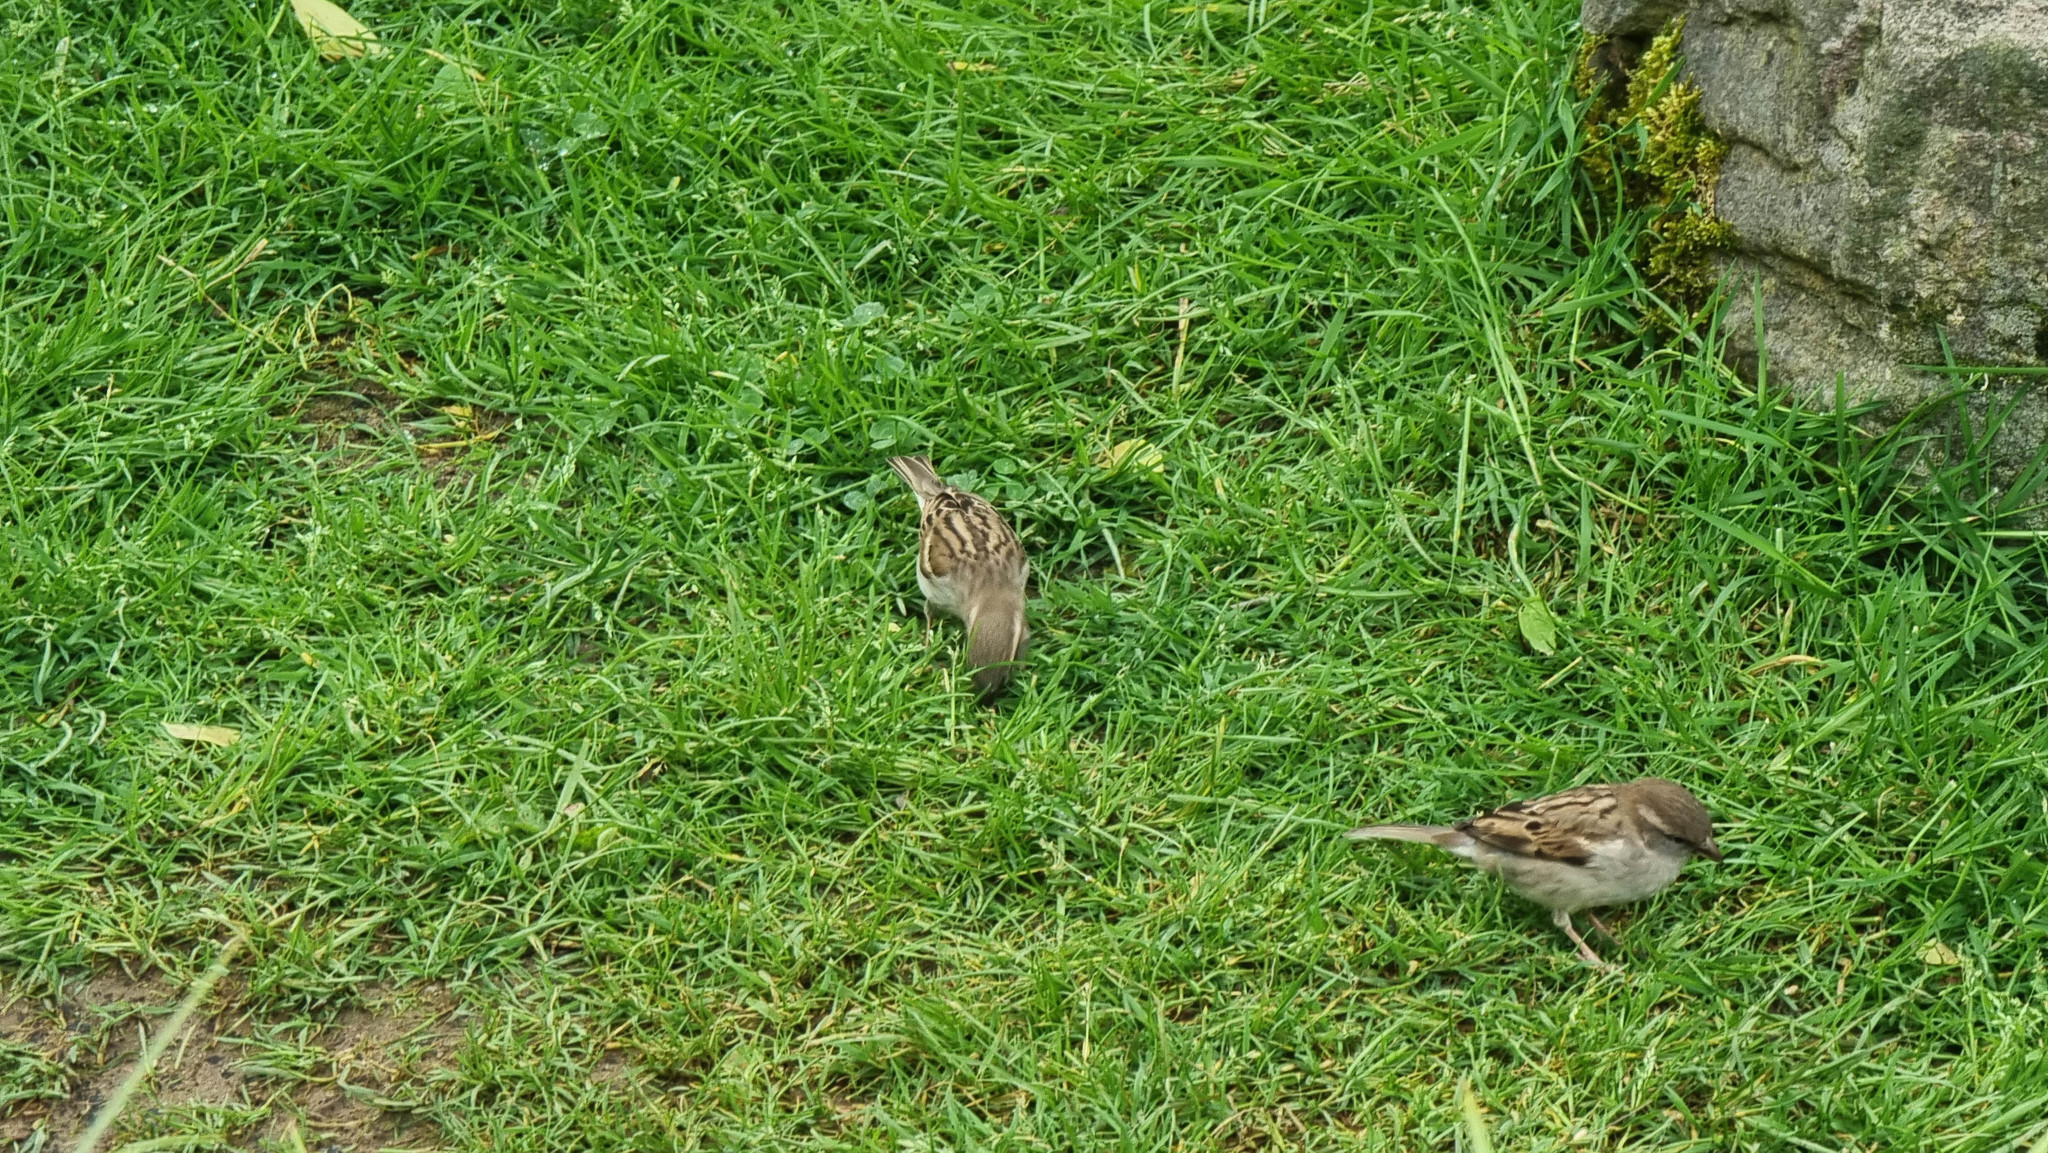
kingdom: Animalia
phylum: Chordata
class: Aves
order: Passeriformes
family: Passeridae
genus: Passer
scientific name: Passer domesticus
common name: House sparrow
